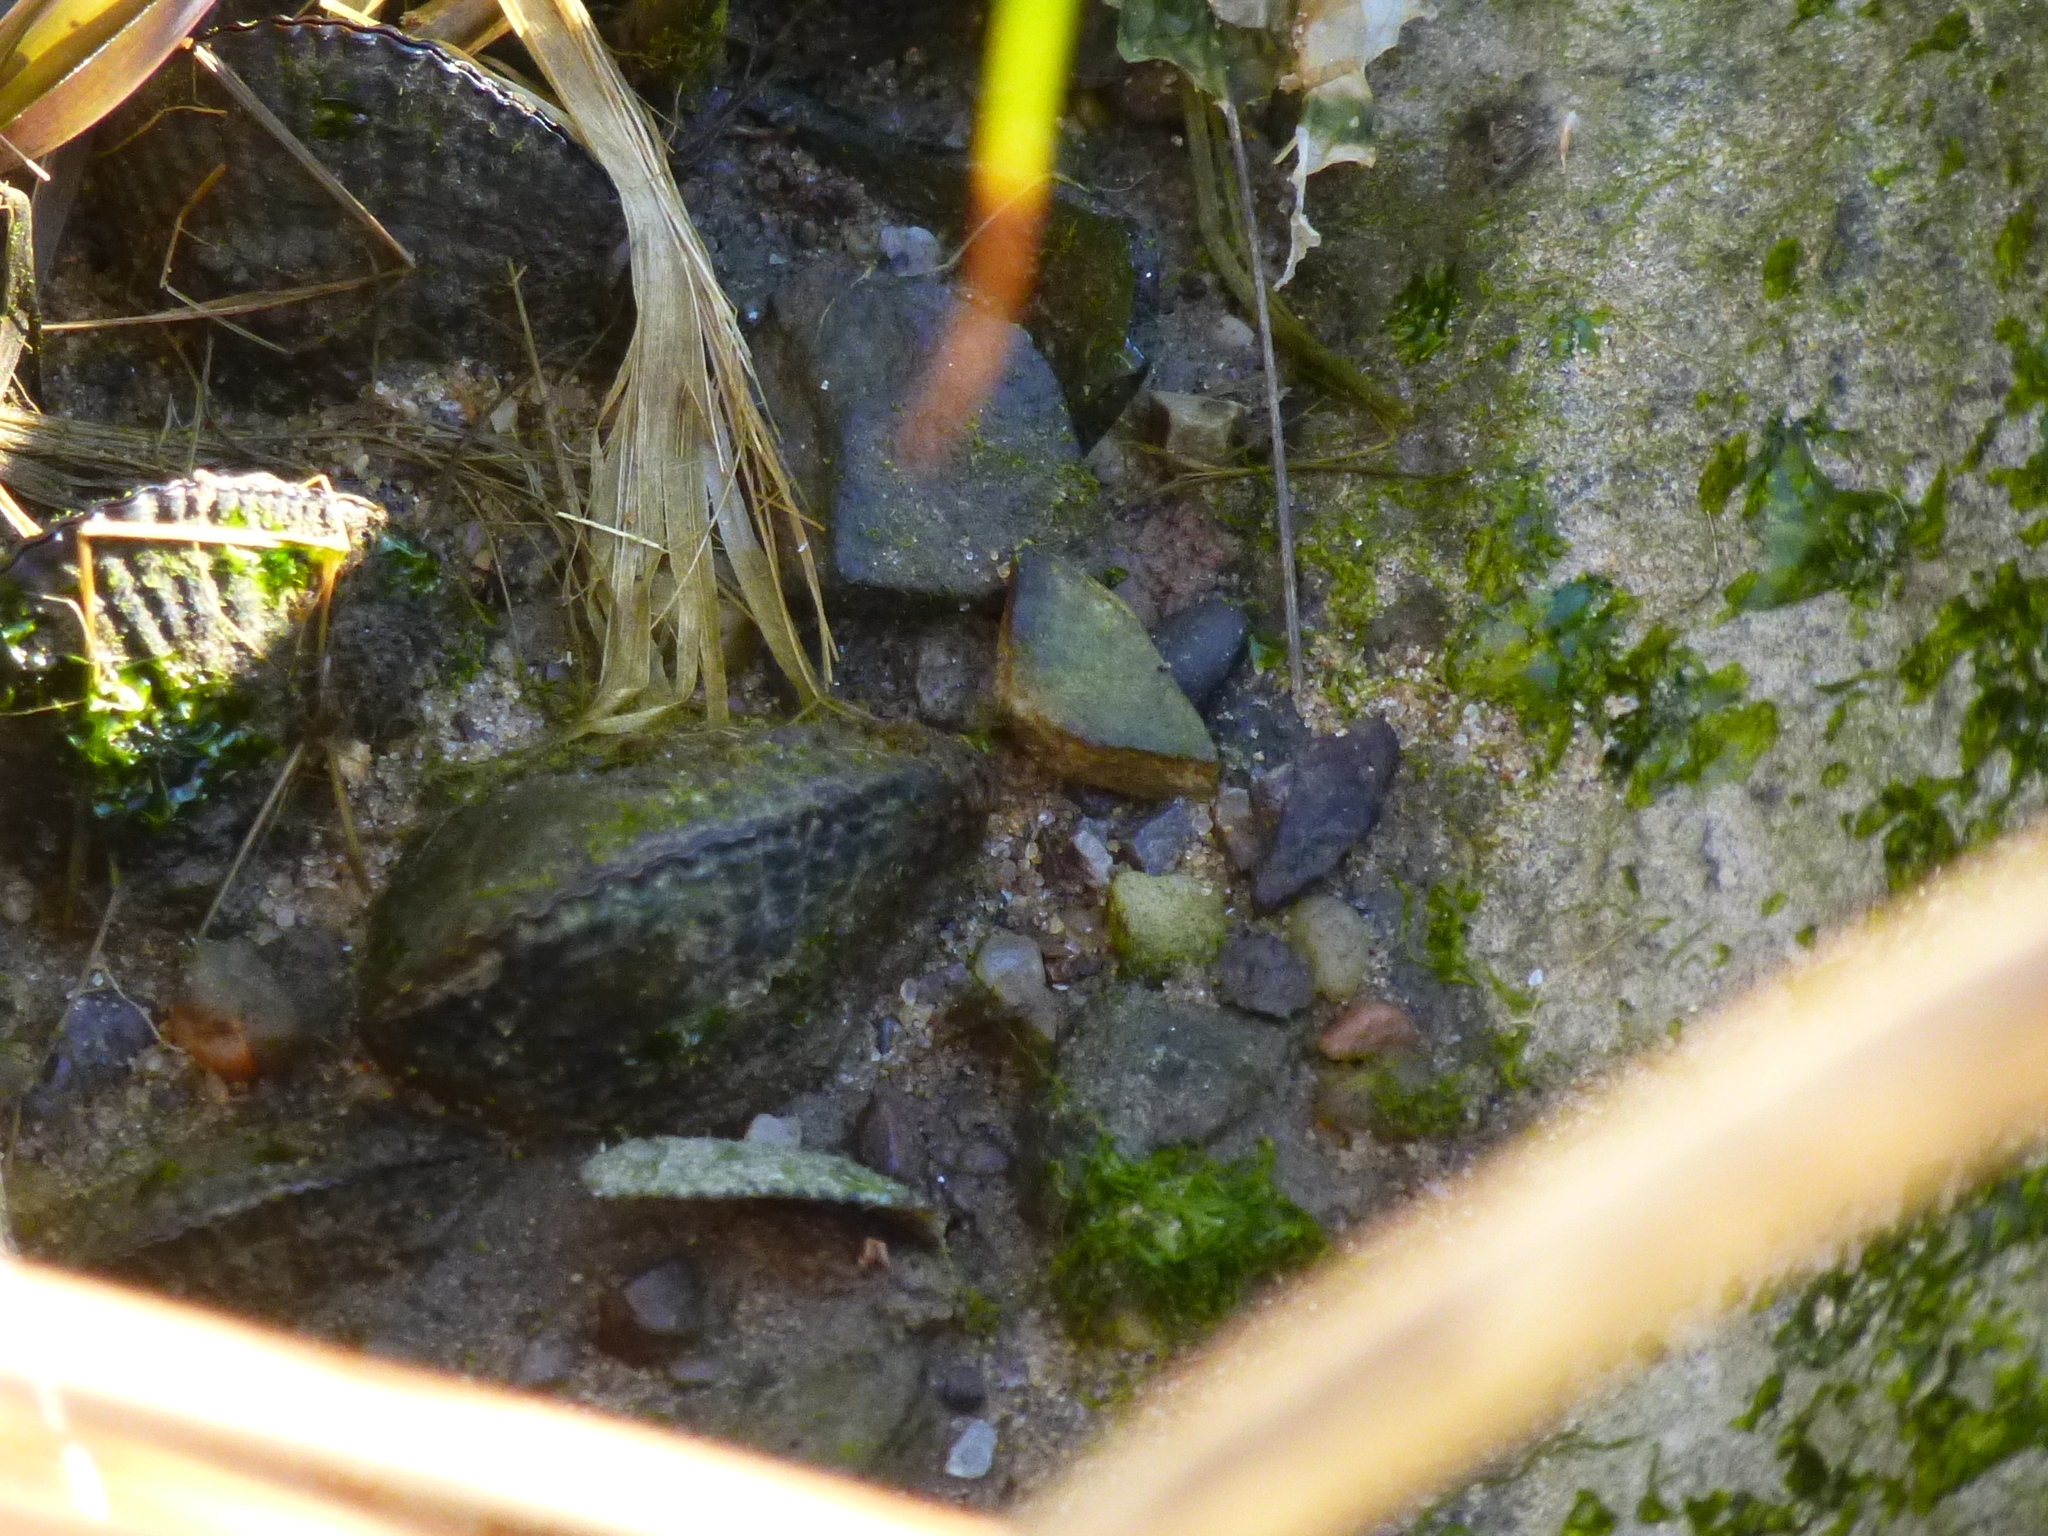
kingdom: Animalia
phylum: Mollusca
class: Bivalvia
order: Mytilida
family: Mytilidae
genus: Geukensia
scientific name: Geukensia demissa
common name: Ribbed mussel
